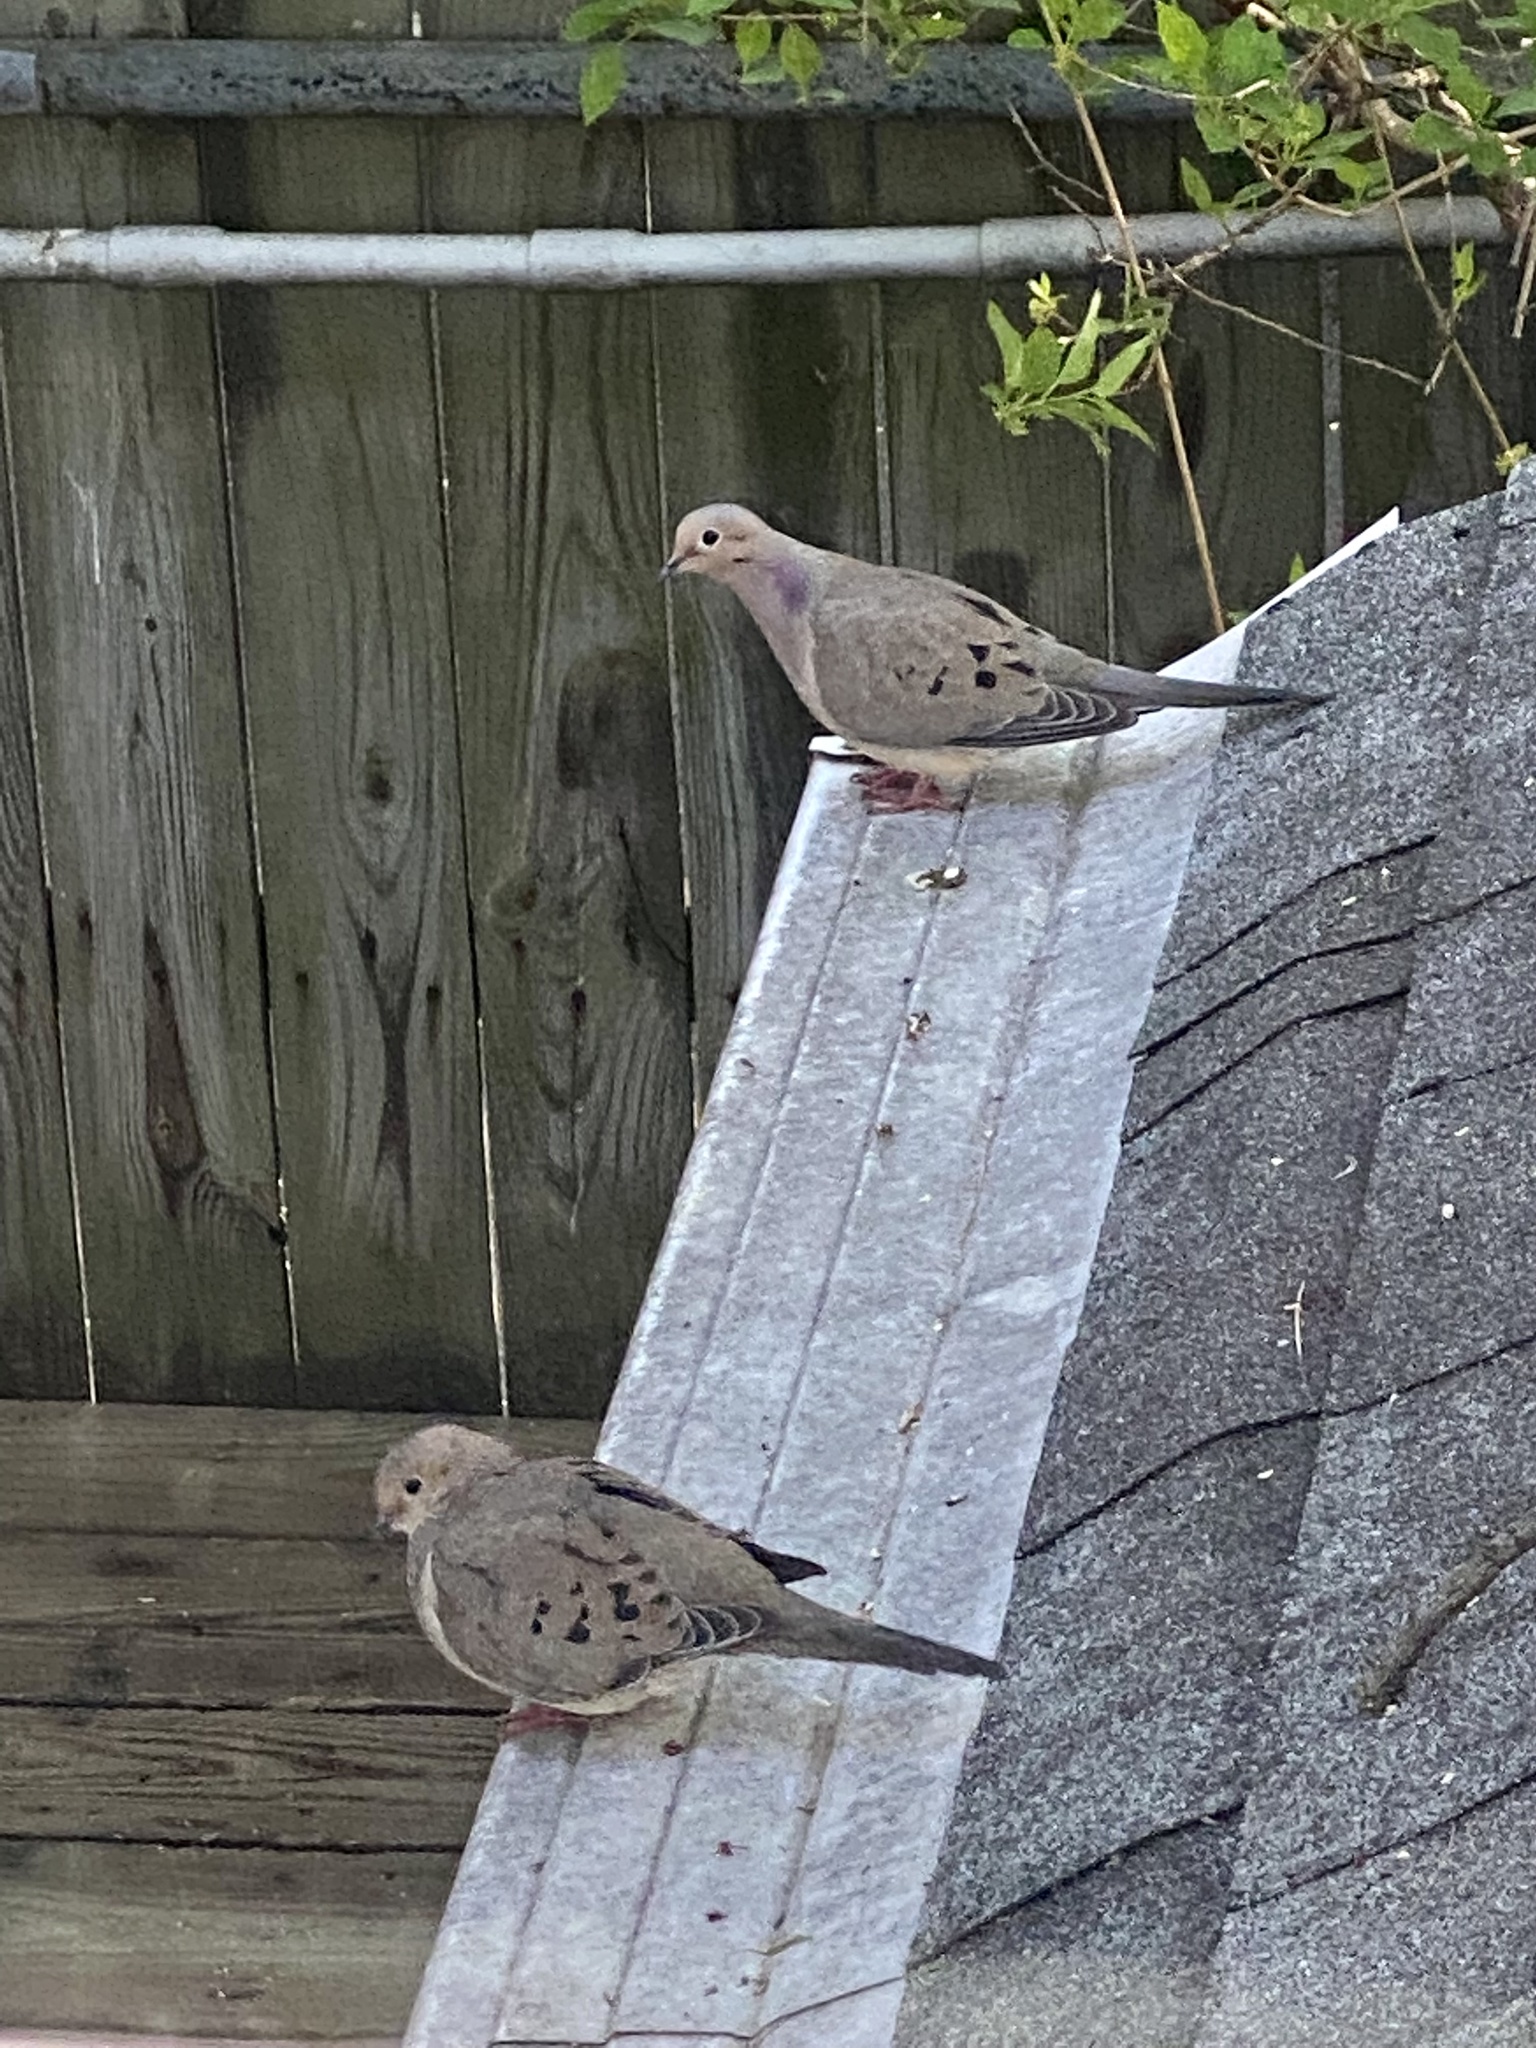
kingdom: Animalia
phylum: Chordata
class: Aves
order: Columbiformes
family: Columbidae
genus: Zenaida
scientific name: Zenaida macroura
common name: Mourning dove
